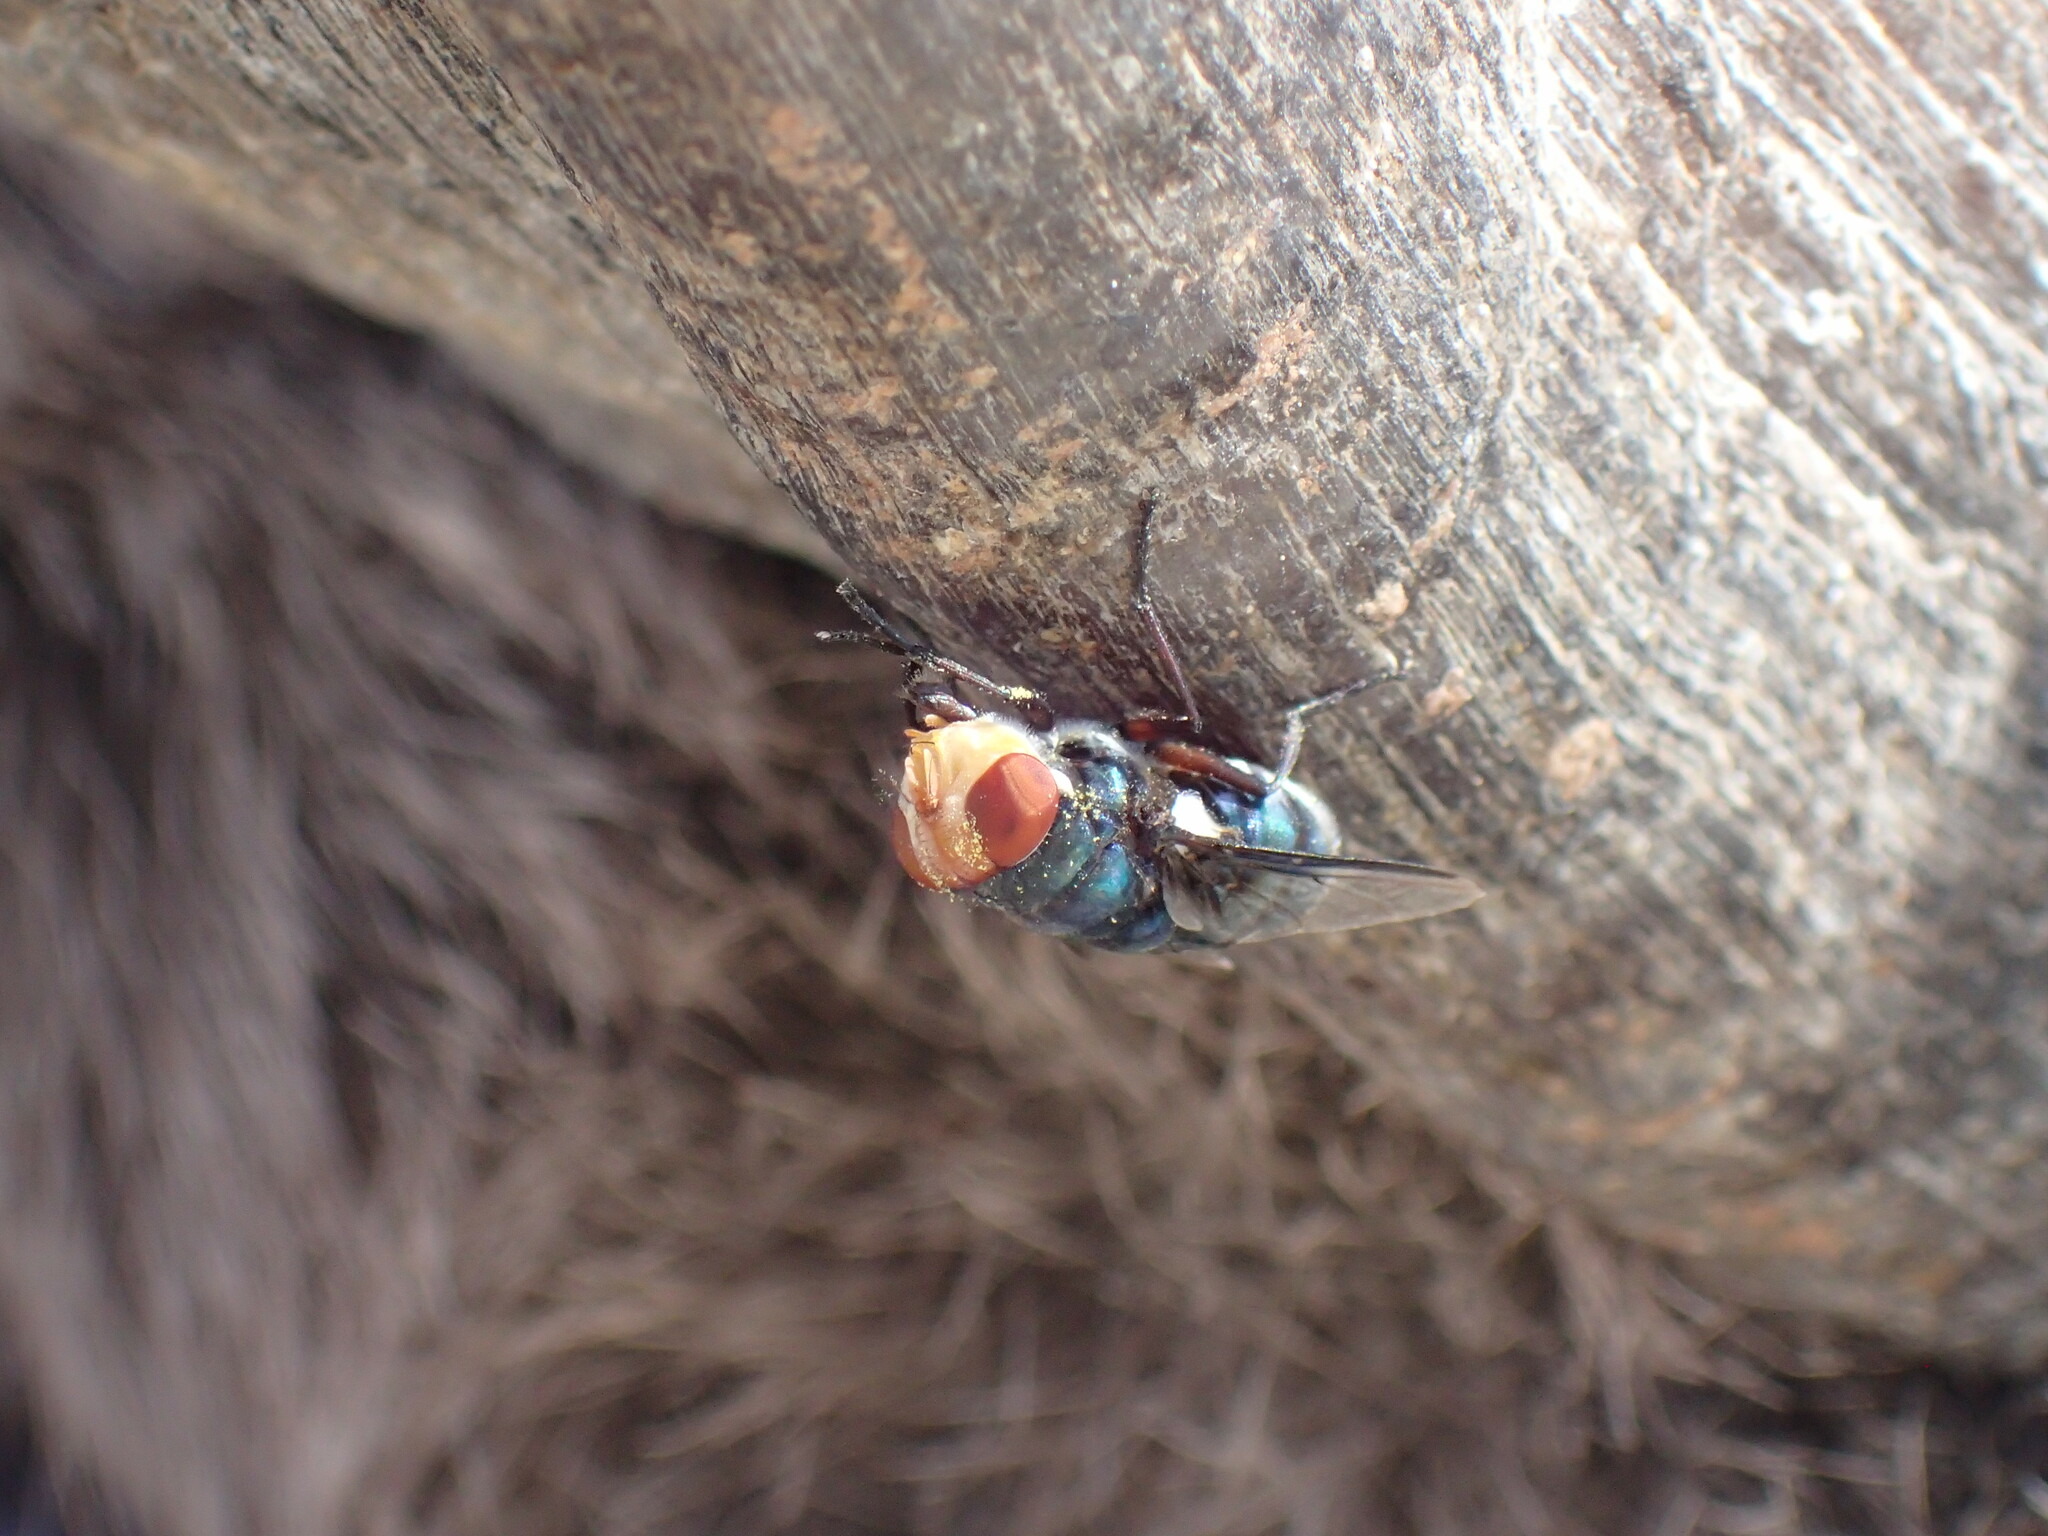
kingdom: Animalia
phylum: Arthropoda
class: Insecta
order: Diptera
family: Calliphoridae
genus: Chrysomya
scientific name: Chrysomya marginalis
